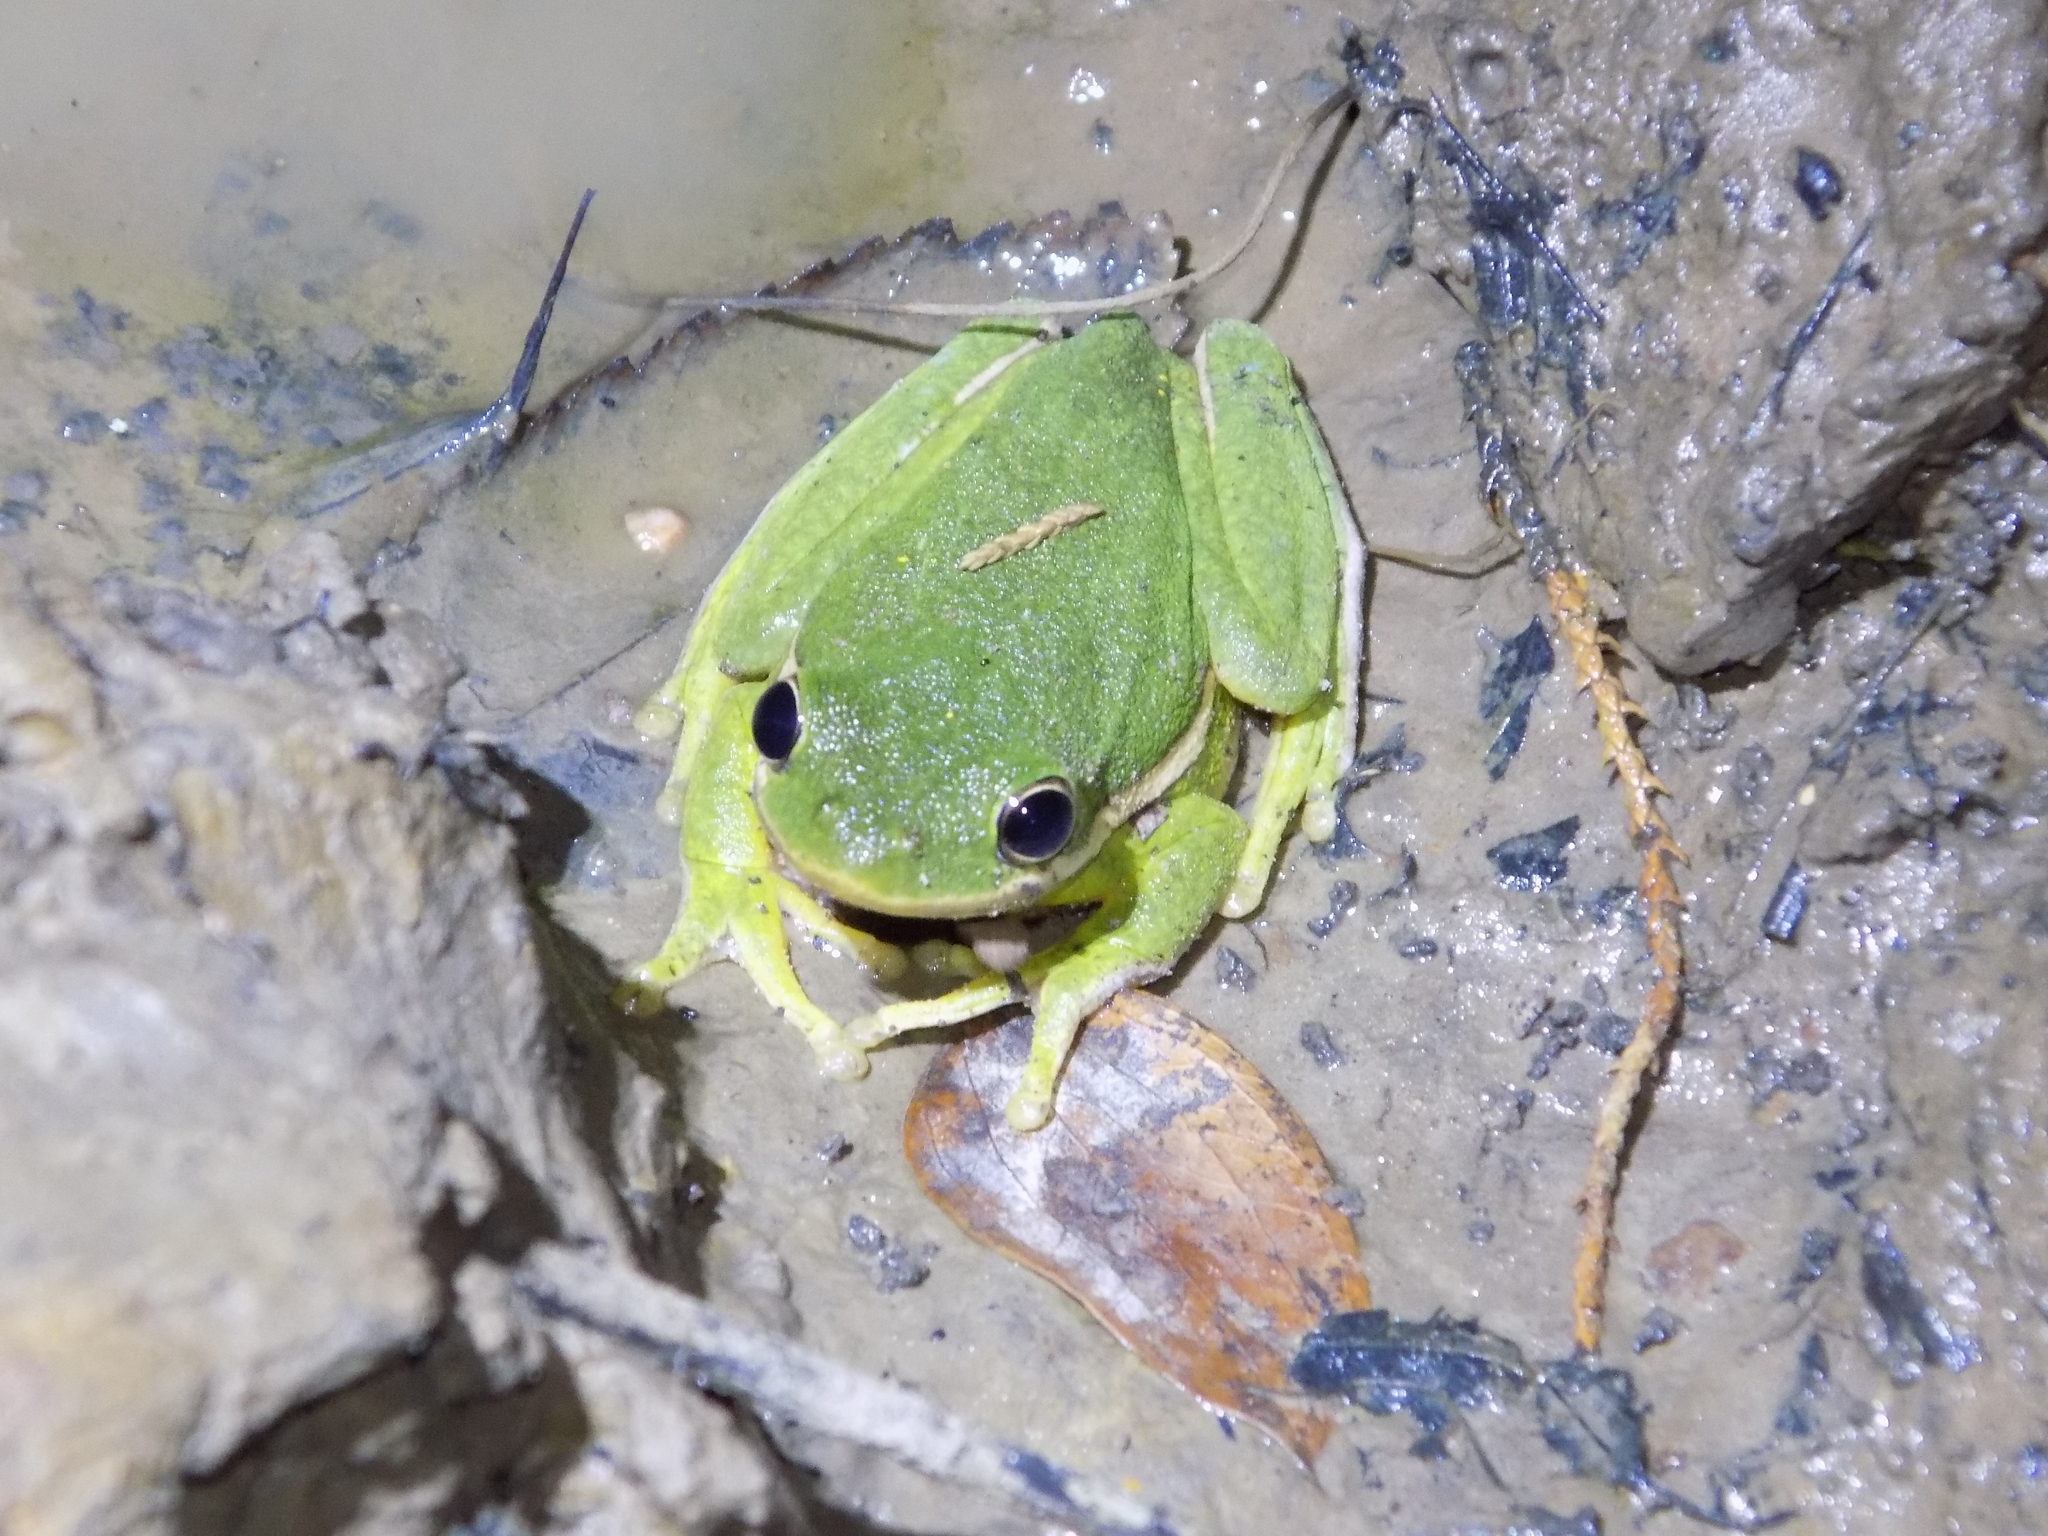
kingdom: Animalia
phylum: Chordata
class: Amphibia
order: Anura
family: Hylidae
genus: Dryophytes
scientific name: Dryophytes cinereus
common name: Green treefrog
